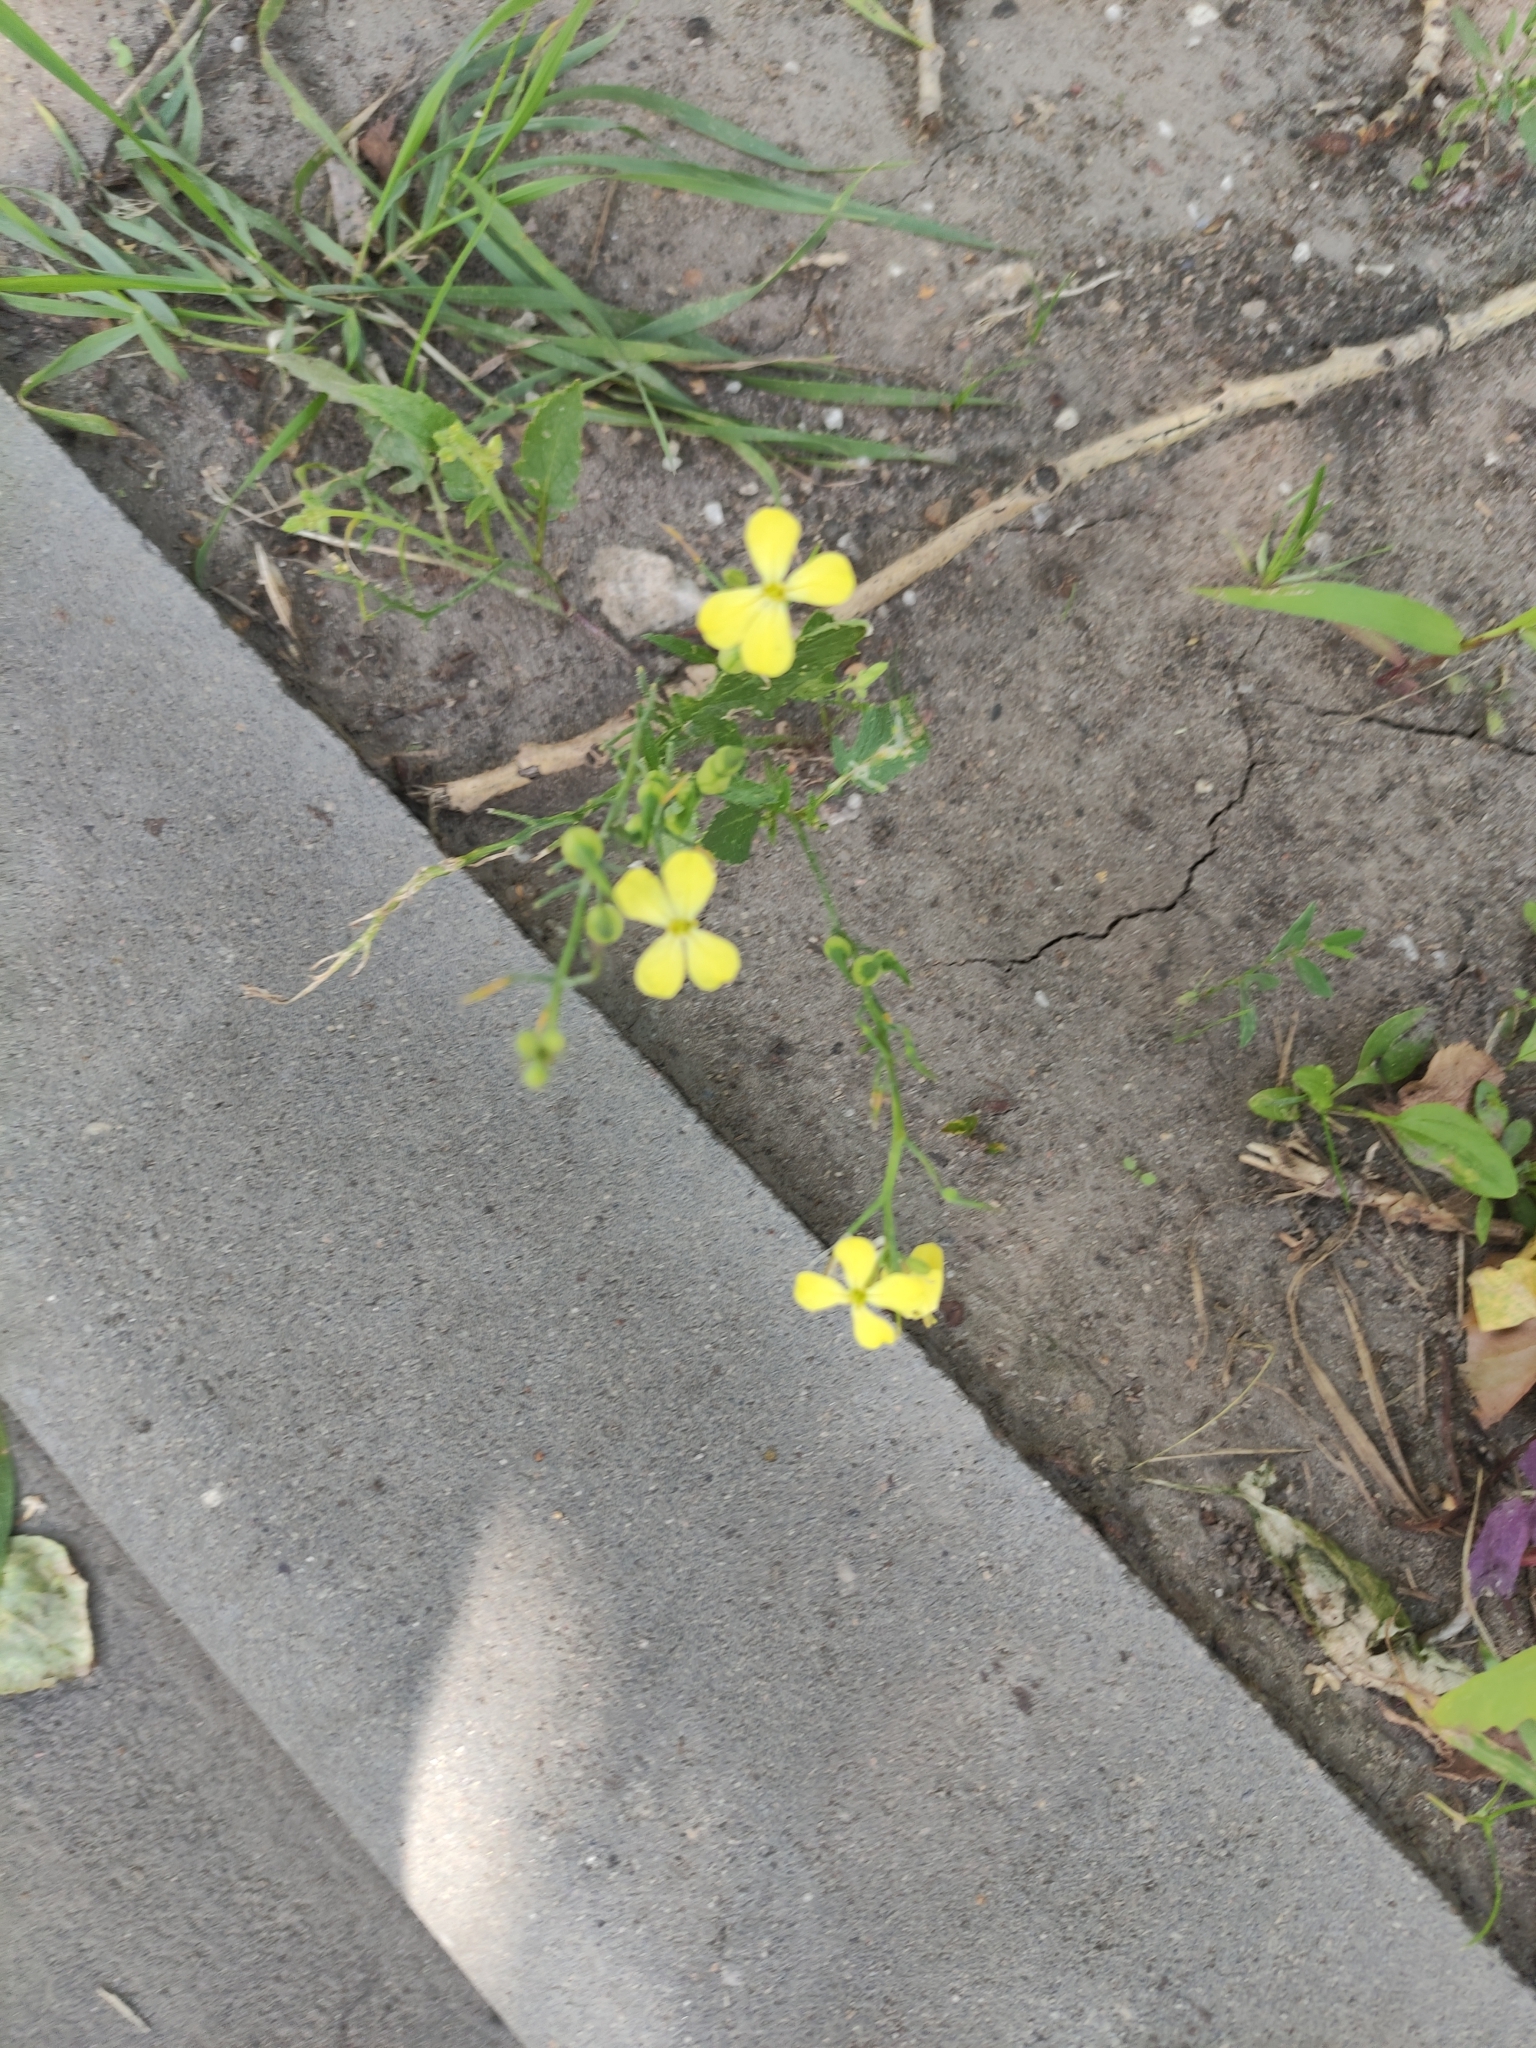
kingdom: Plantae
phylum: Tracheophyta
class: Magnoliopsida
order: Brassicales
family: Brassicaceae
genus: Raphanus
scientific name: Raphanus raphanistrum
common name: Wild radish
